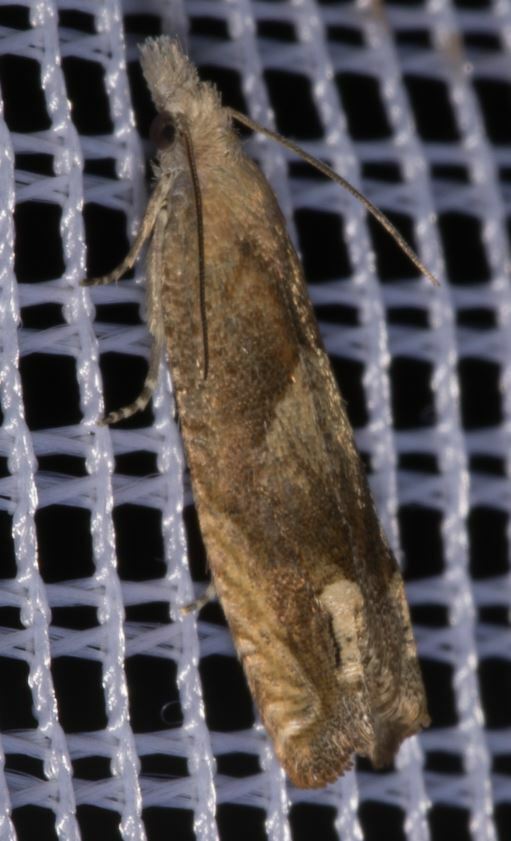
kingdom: Animalia
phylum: Arthropoda
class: Insecta
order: Lepidoptera
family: Tortricidae
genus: Eucosma
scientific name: Eucosma conterminana
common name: Pale lettuce bell
